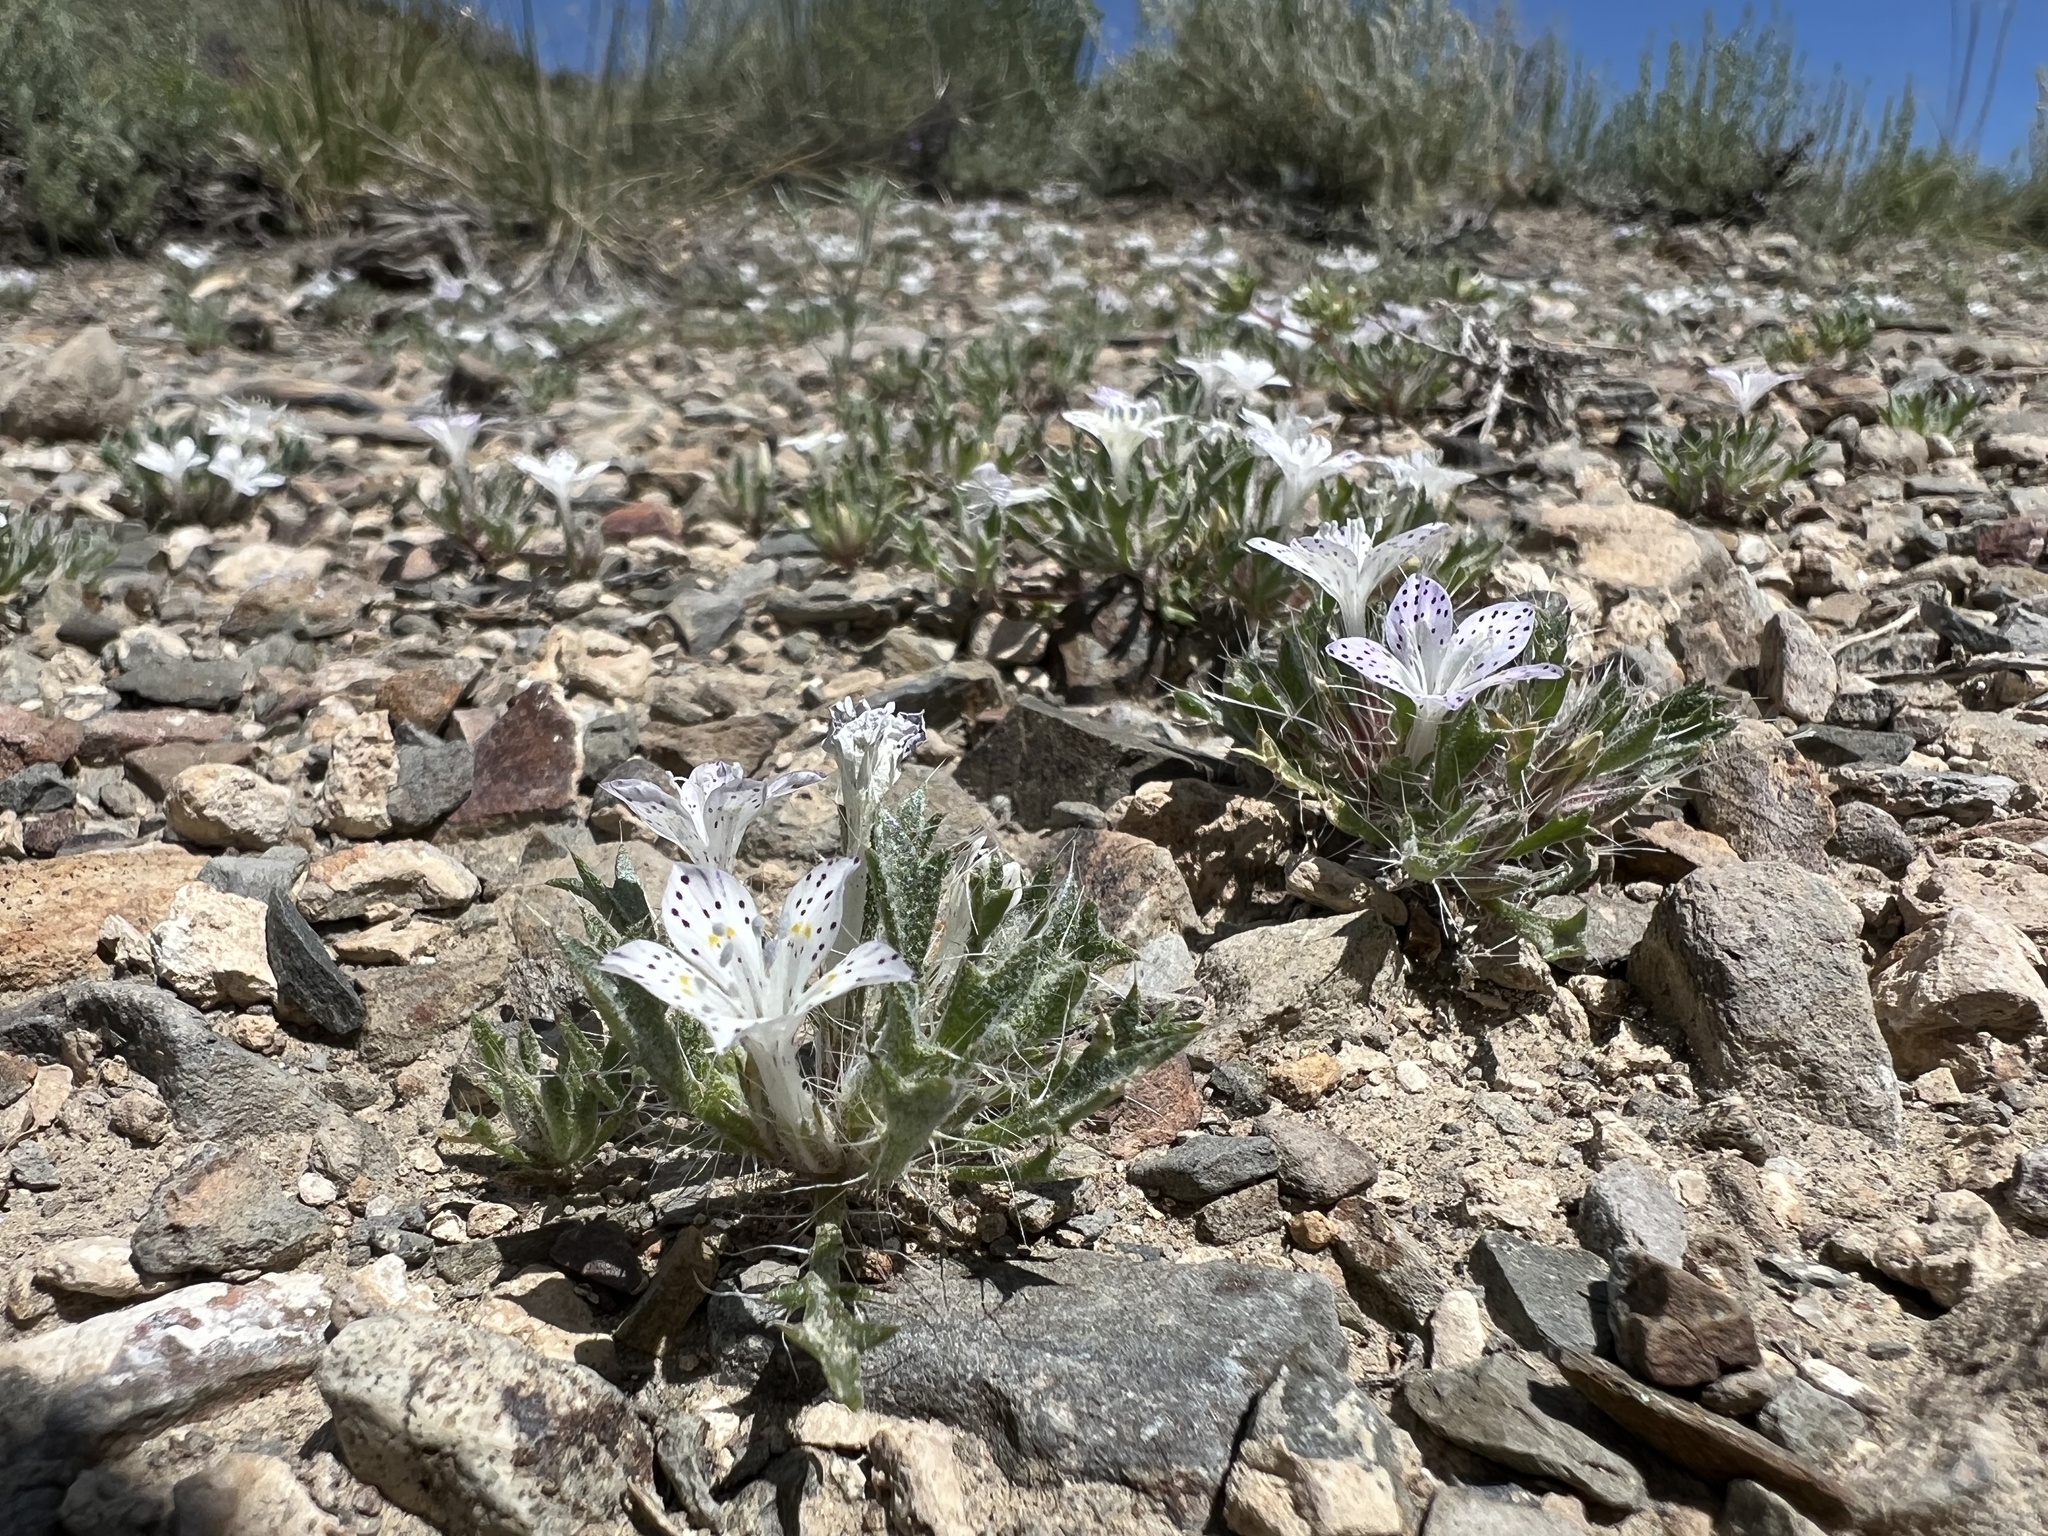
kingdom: Plantae
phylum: Tracheophyta
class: Magnoliopsida
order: Ericales
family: Polemoniaceae
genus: Langloisia
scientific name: Langloisia setosissima
